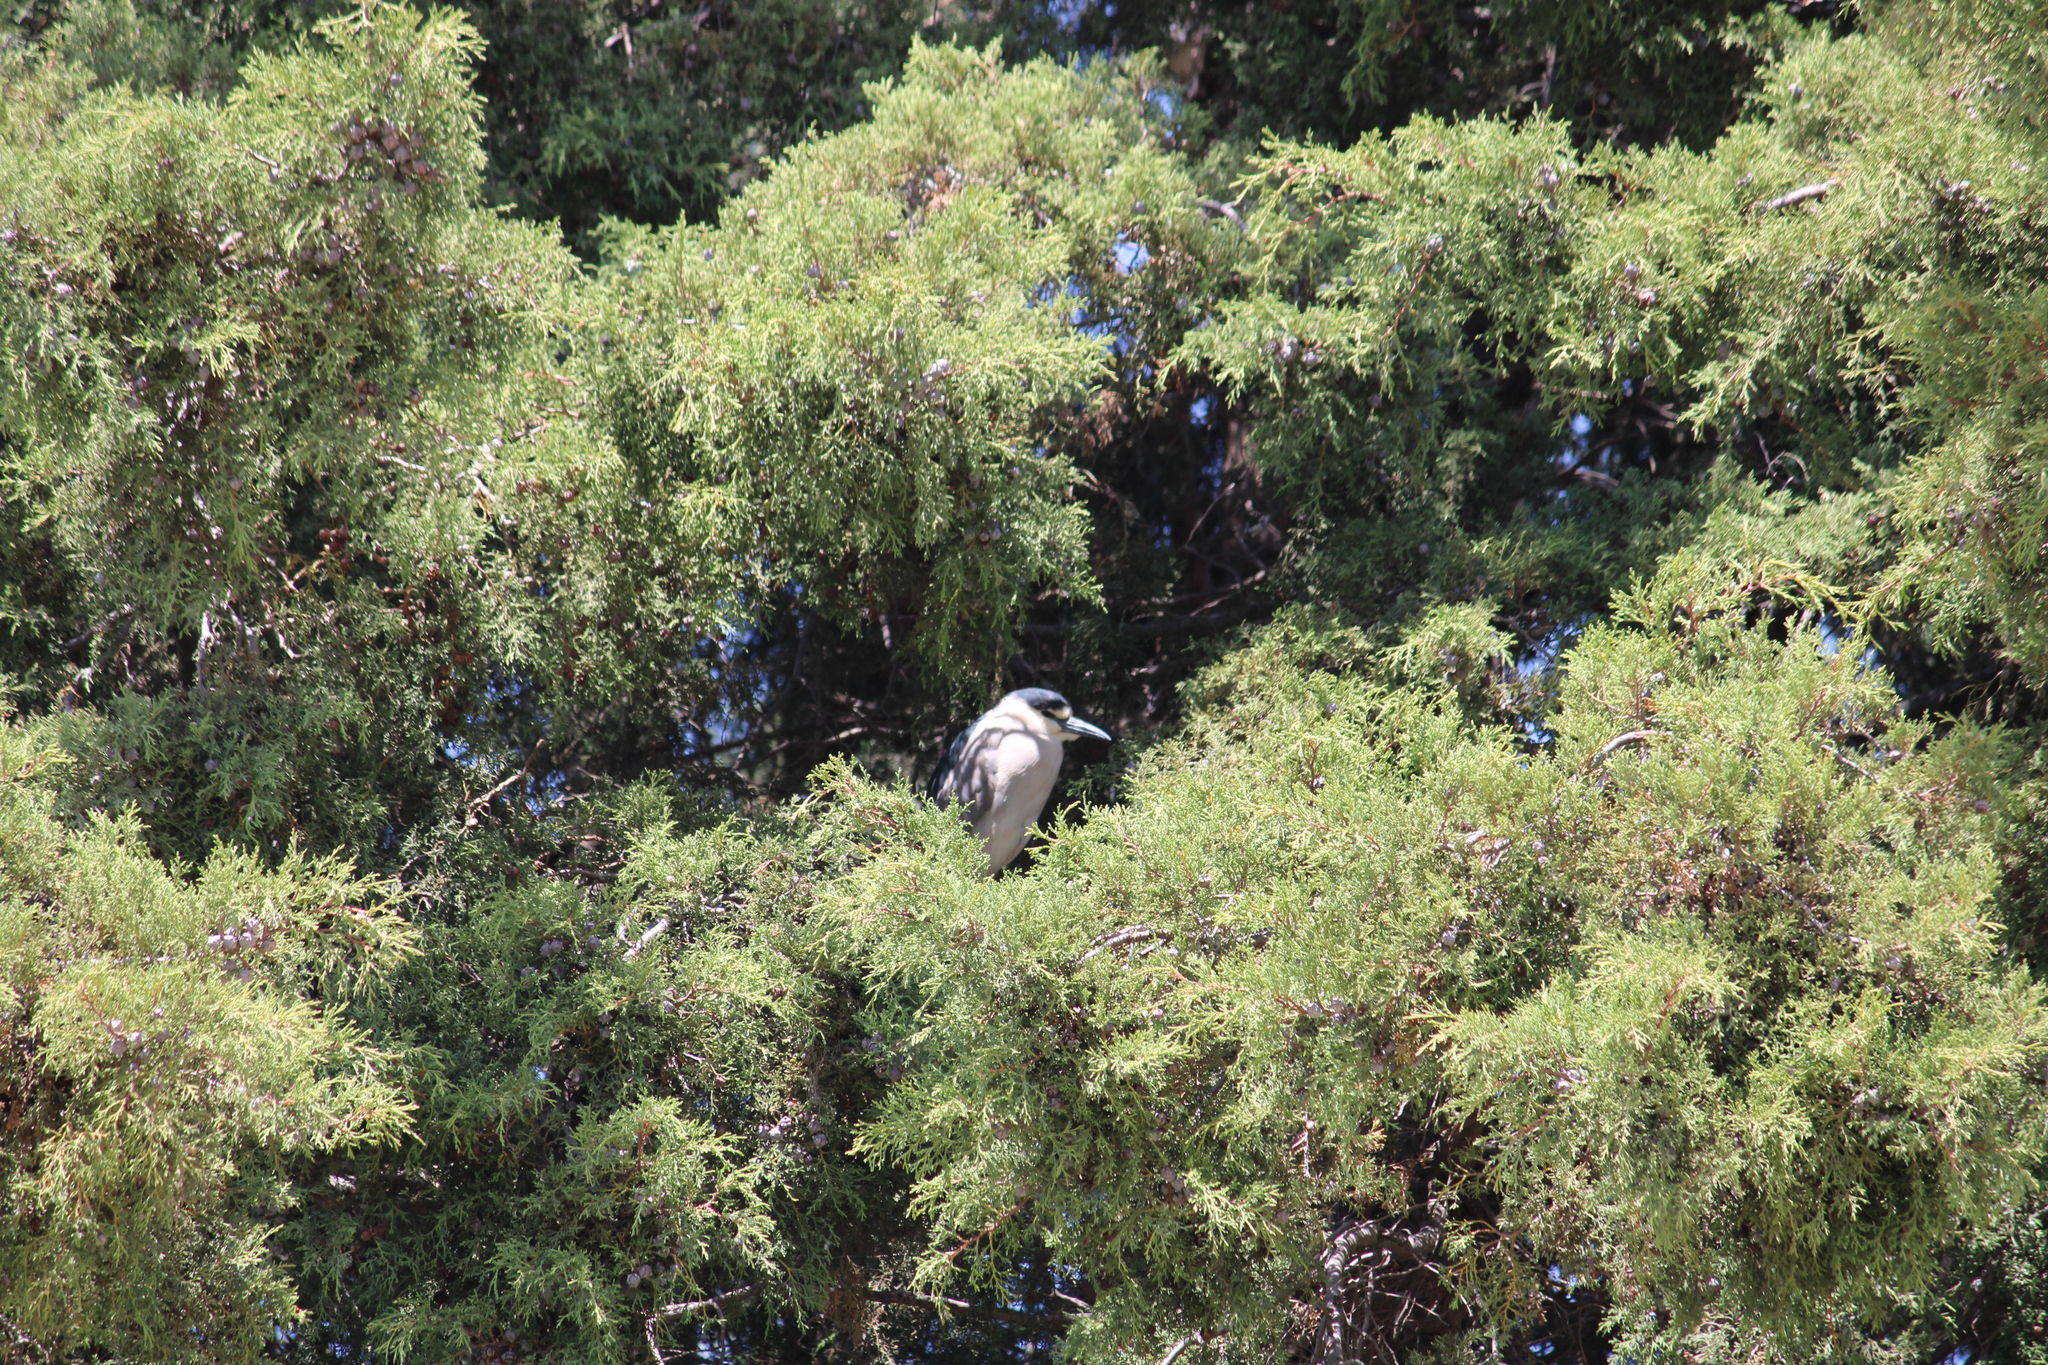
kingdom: Animalia
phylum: Chordata
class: Aves
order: Pelecaniformes
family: Ardeidae
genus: Nycticorax
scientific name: Nycticorax nycticorax
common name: Black-crowned night heron
